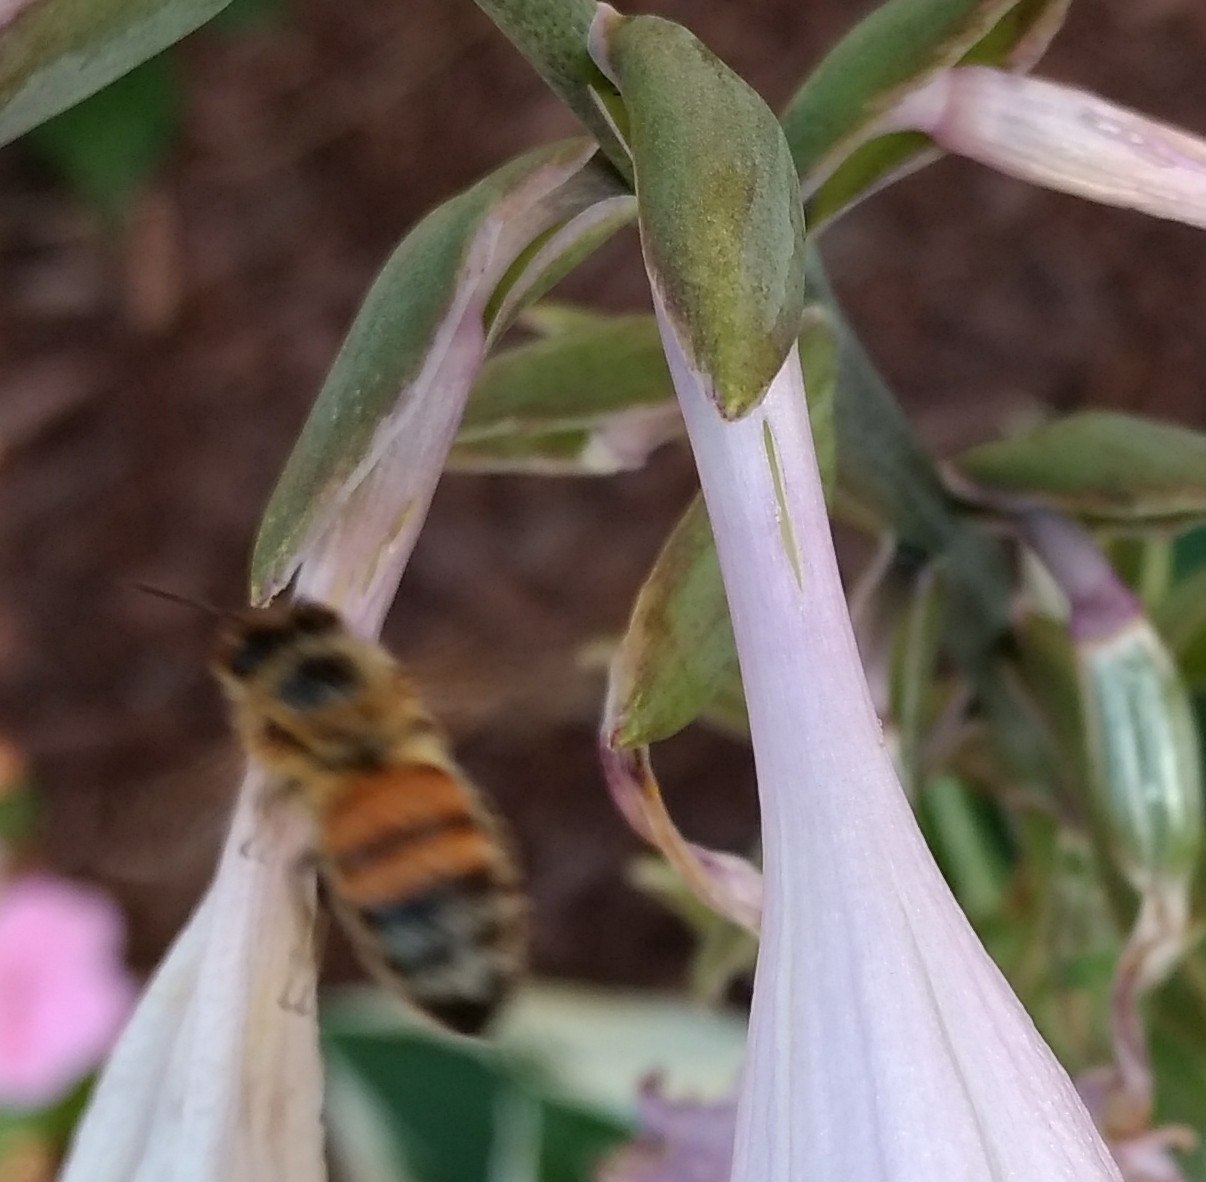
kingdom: Animalia
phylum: Arthropoda
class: Insecta
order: Hymenoptera
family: Apidae
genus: Apis
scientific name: Apis mellifera
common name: Honey bee
